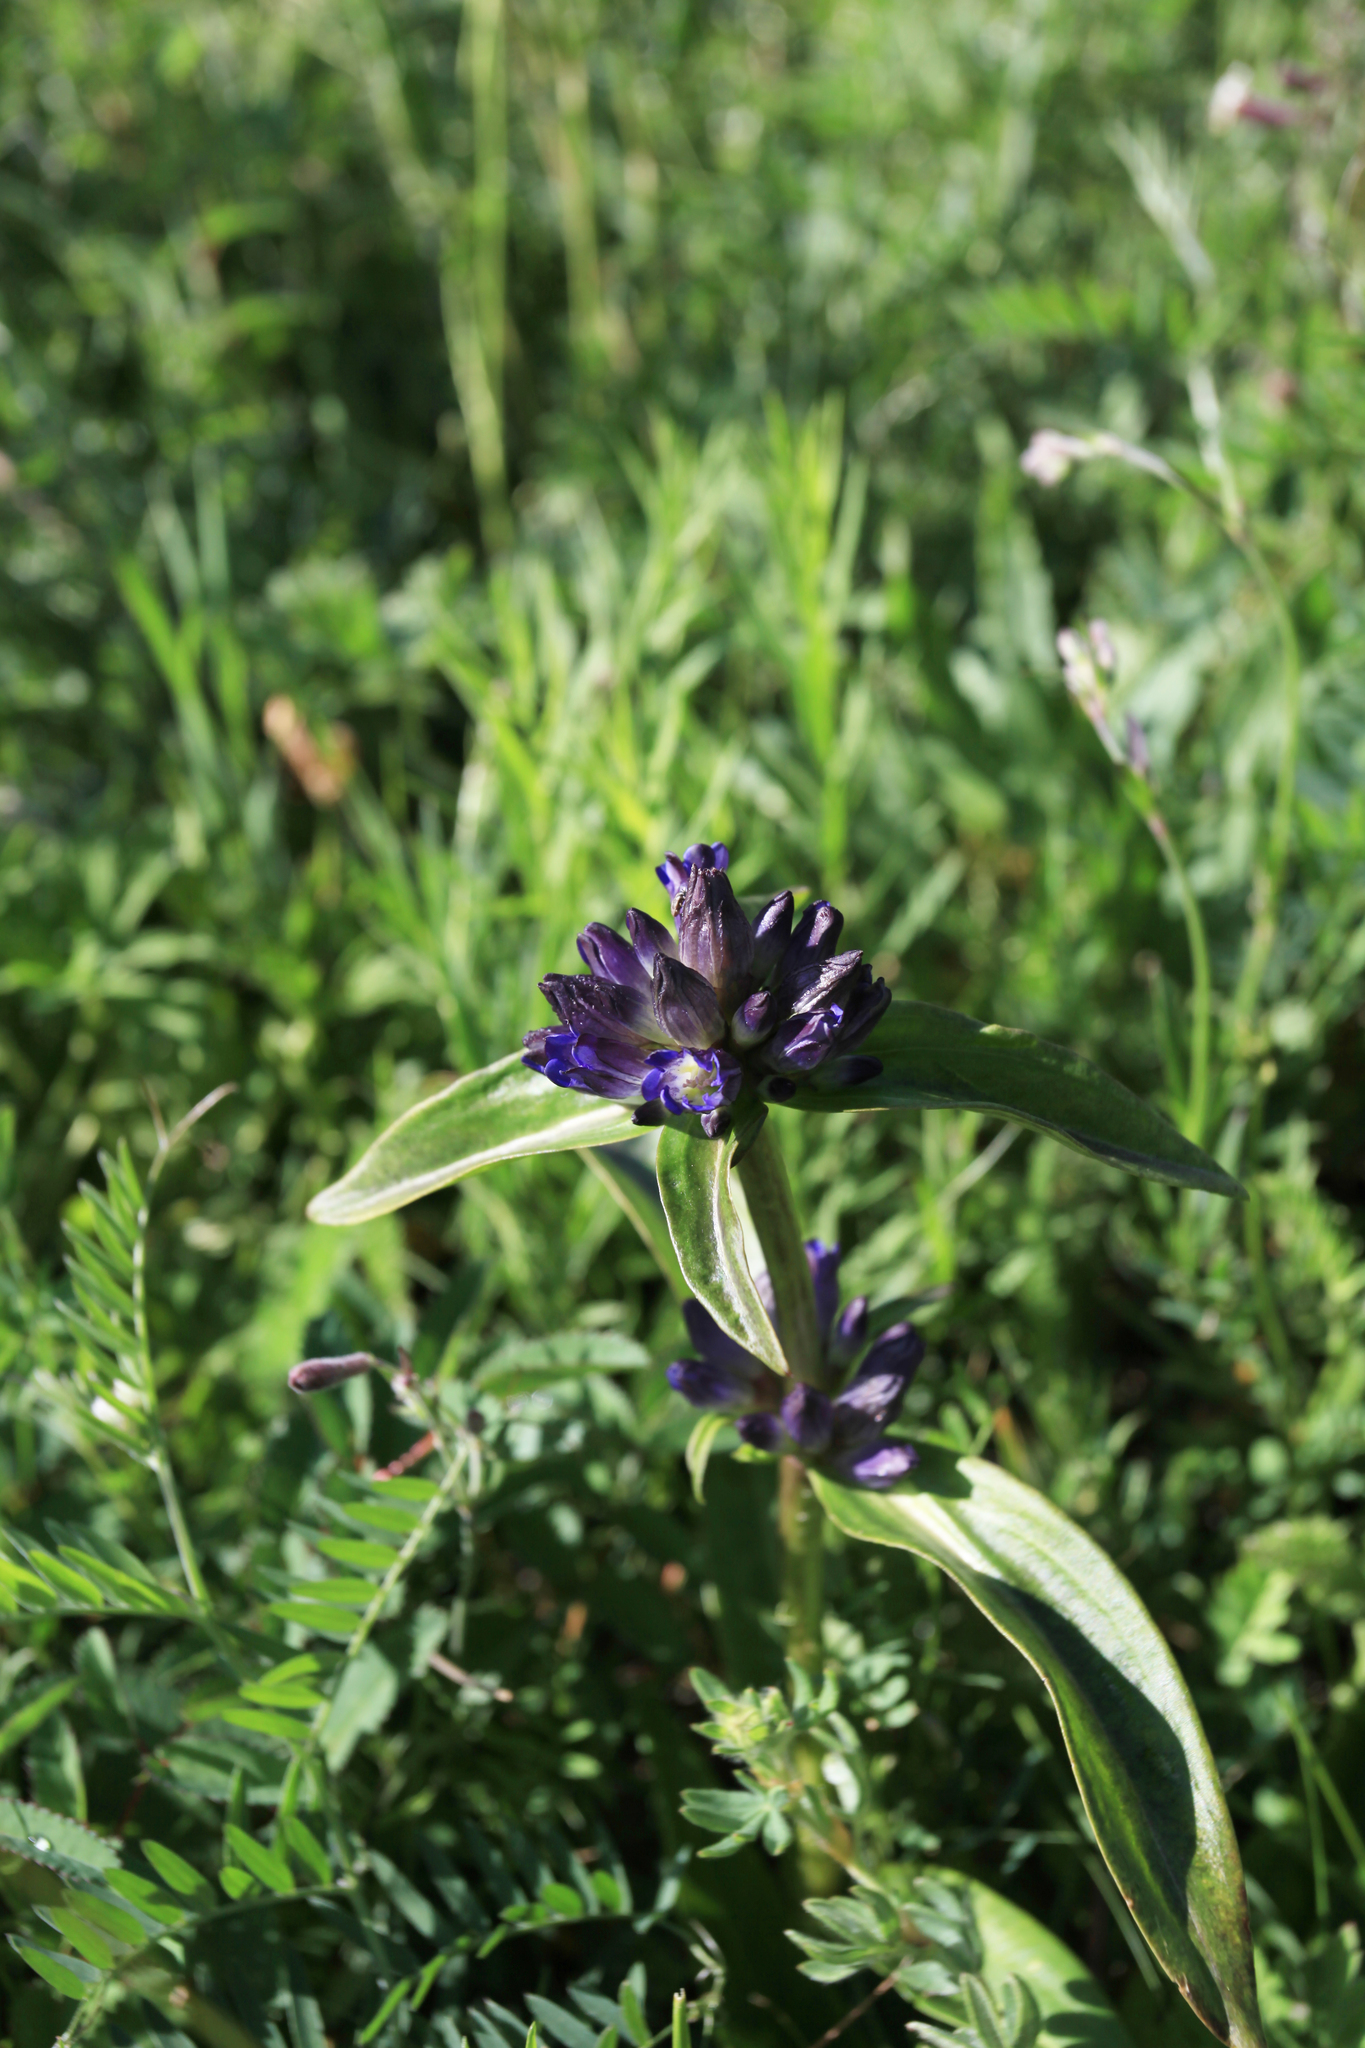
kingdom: Plantae
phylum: Tracheophyta
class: Magnoliopsida
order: Gentianales
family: Gentianaceae
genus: Gentiana
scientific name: Gentiana macrophylla
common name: Large-leaf gentian
